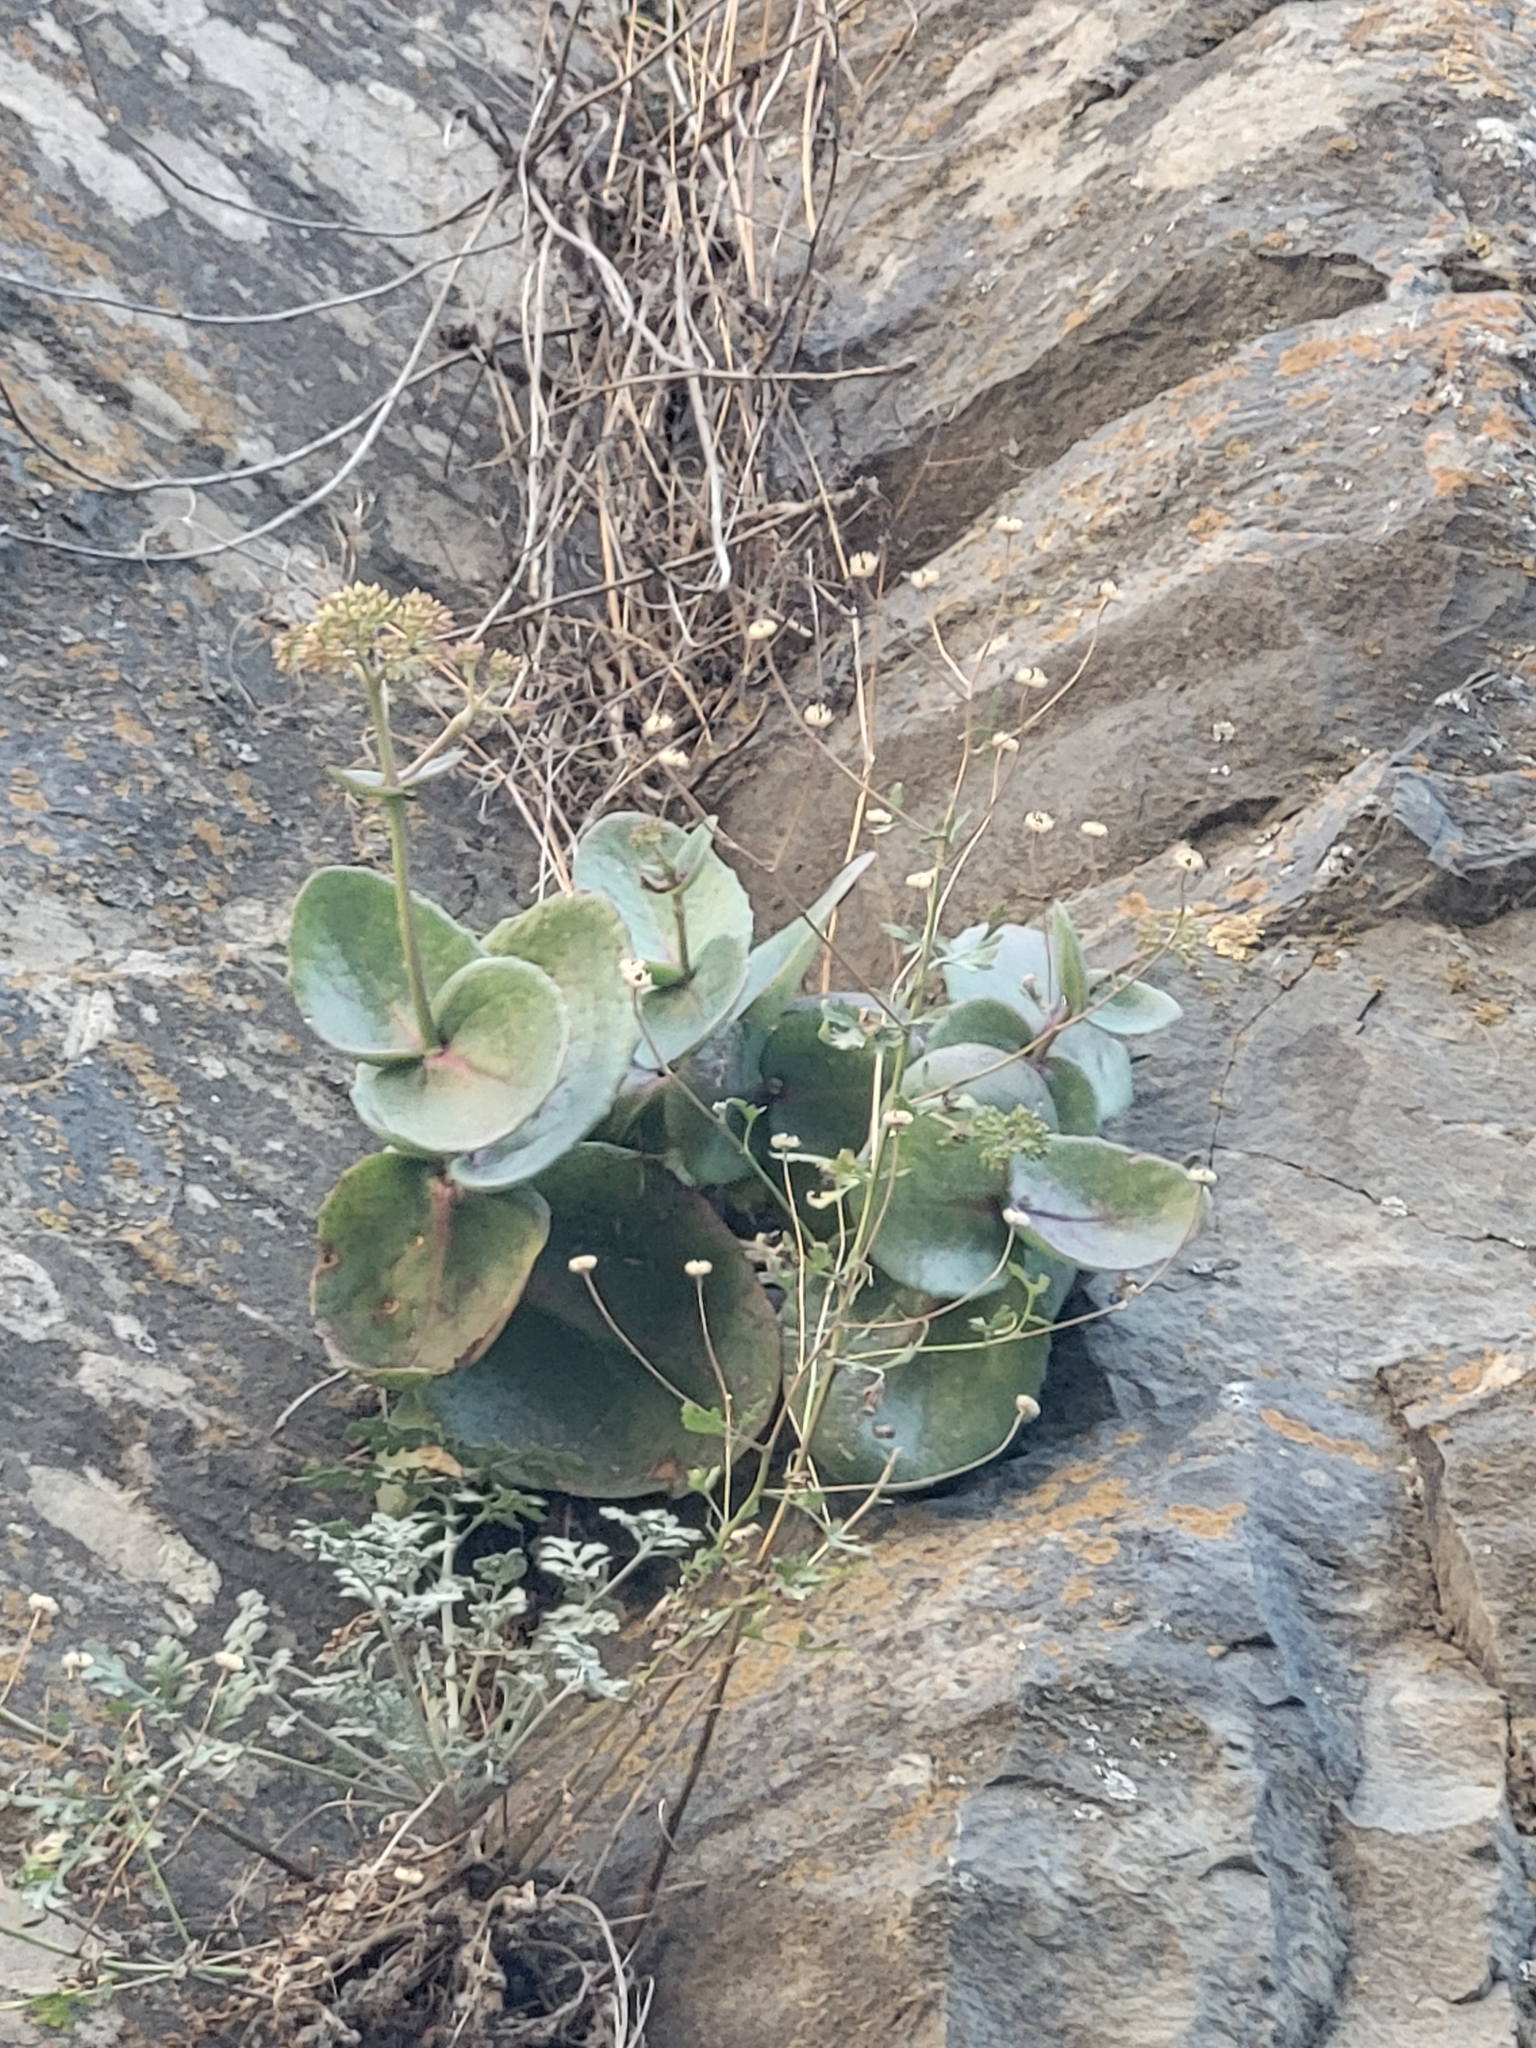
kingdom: Plantae
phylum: Tracheophyta
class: Magnoliopsida
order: Saxifragales
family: Crassulaceae
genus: Hylotelephium
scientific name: Hylotelephium maximum
